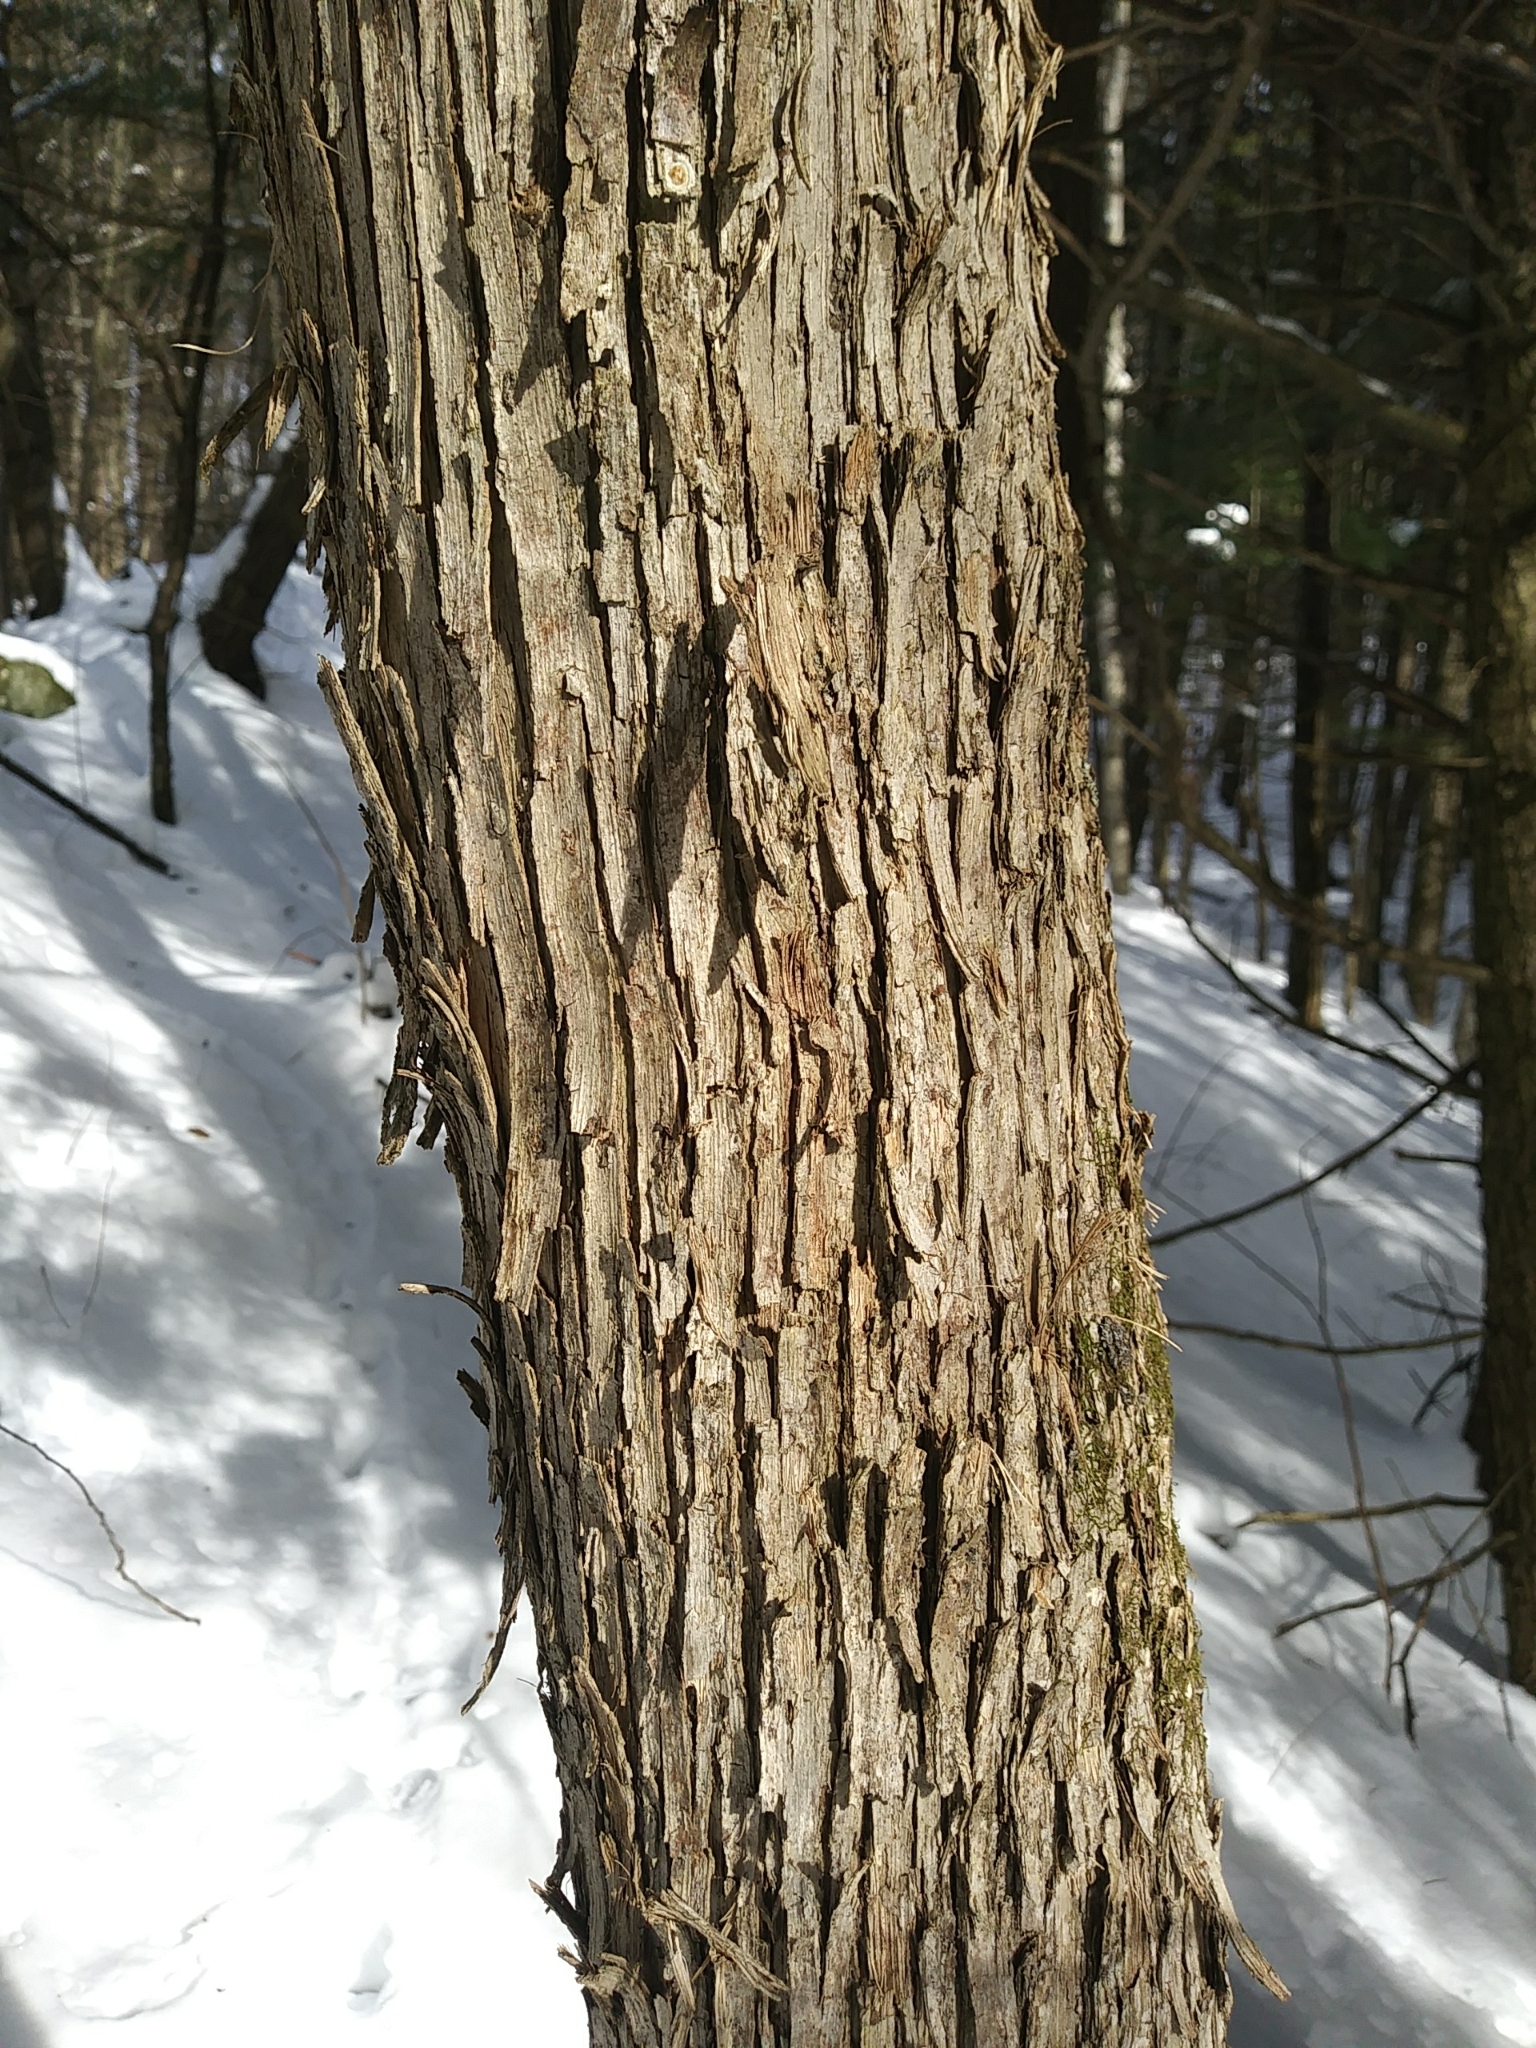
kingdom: Plantae
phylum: Tracheophyta
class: Magnoliopsida
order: Fagales
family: Betulaceae
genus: Ostrya
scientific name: Ostrya virginiana
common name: Ironwood
